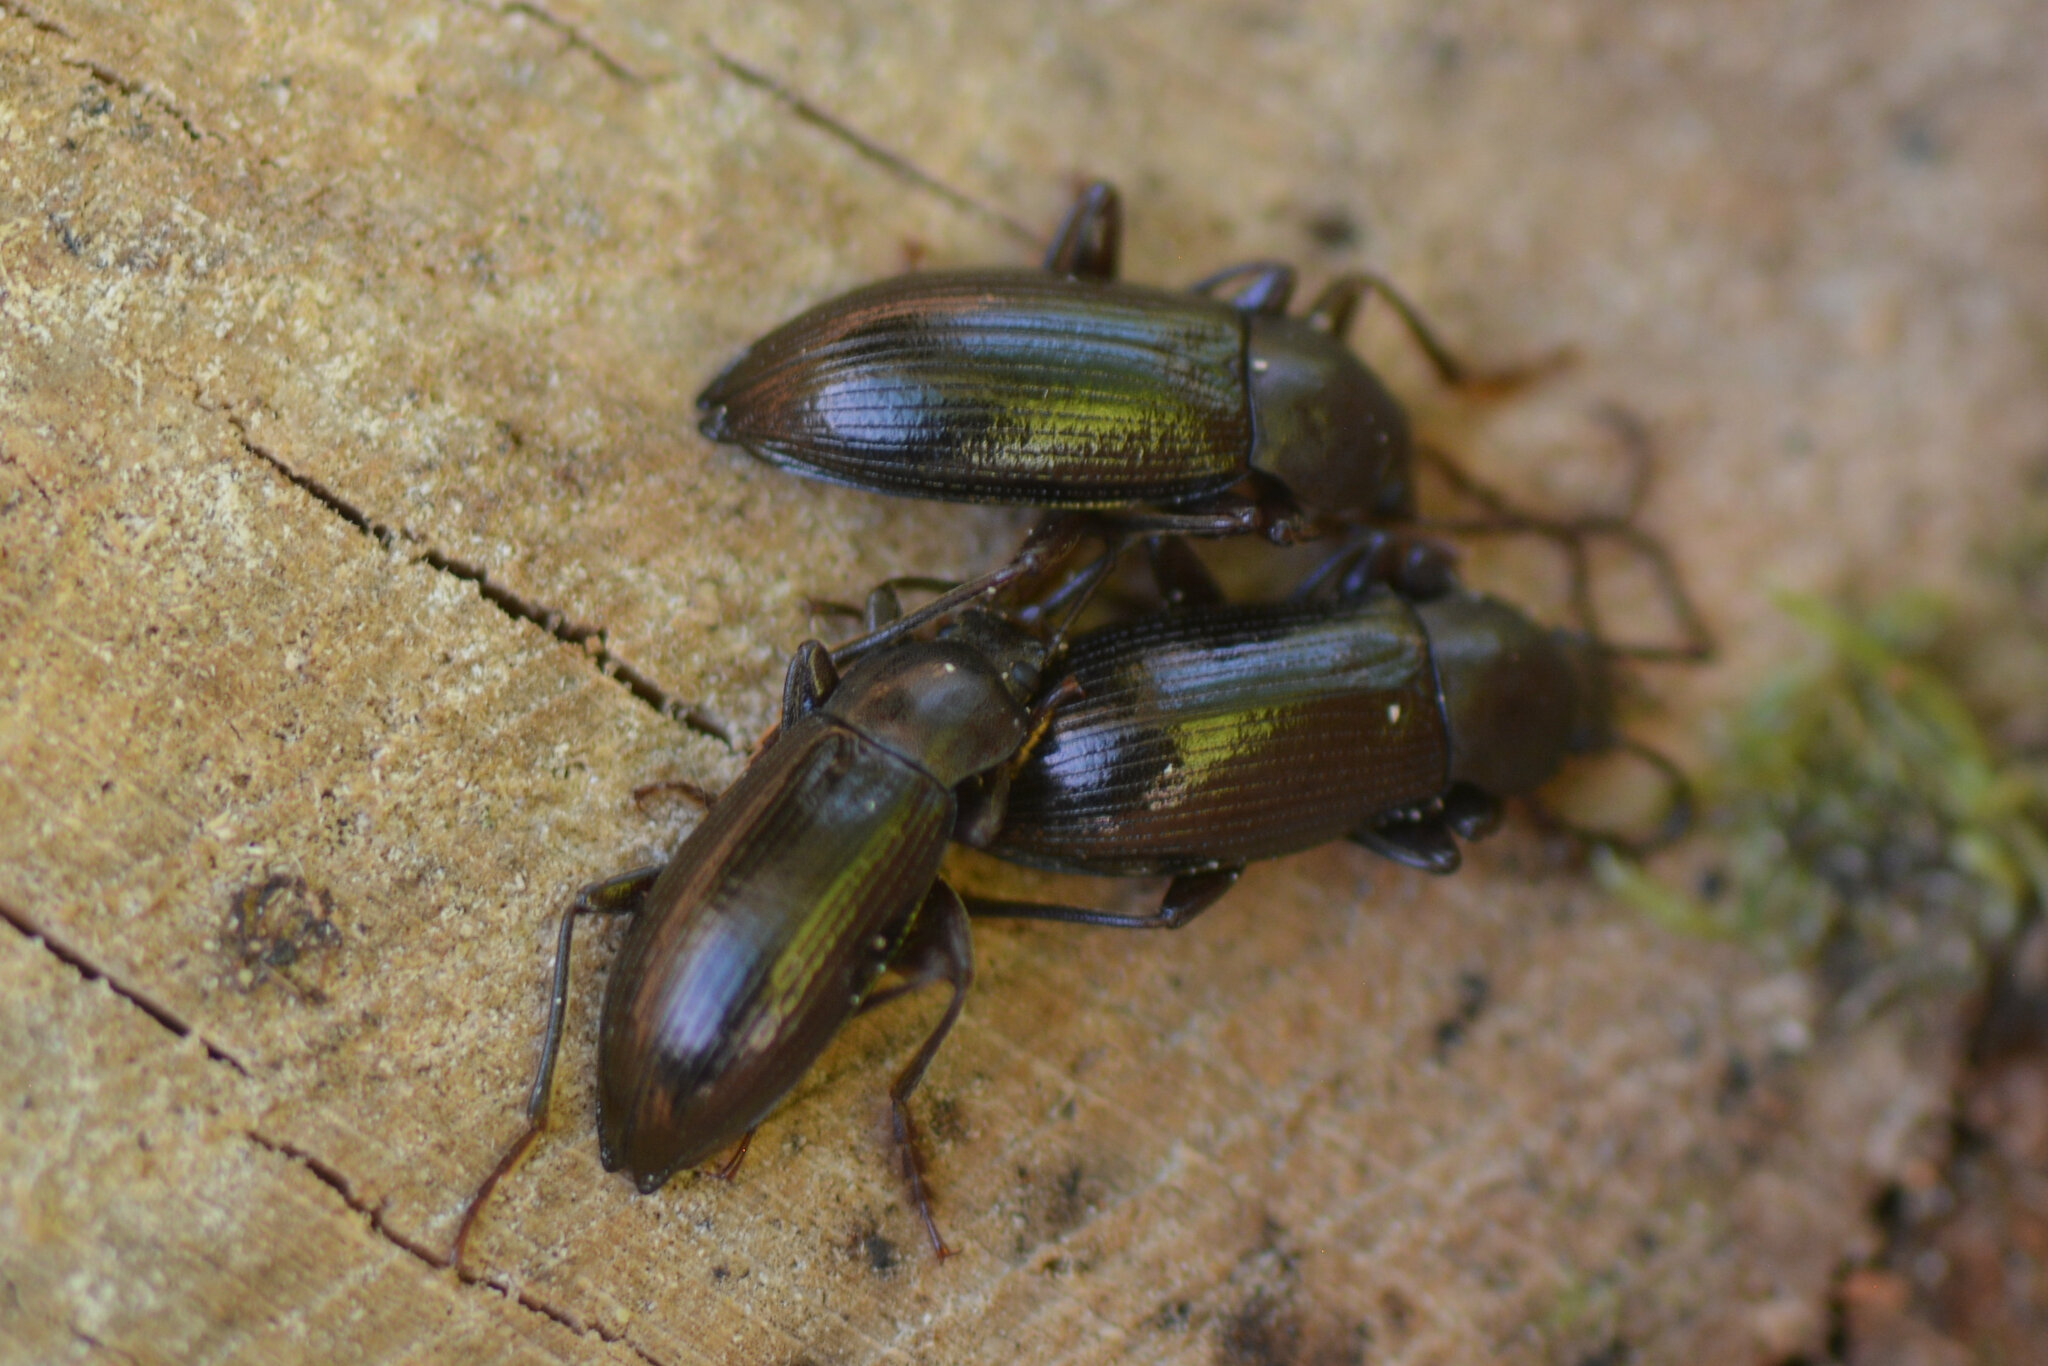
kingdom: Animalia
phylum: Arthropoda
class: Insecta
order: Coleoptera
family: Tenebrionidae
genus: Stenomax
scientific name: Stenomax aeneus
